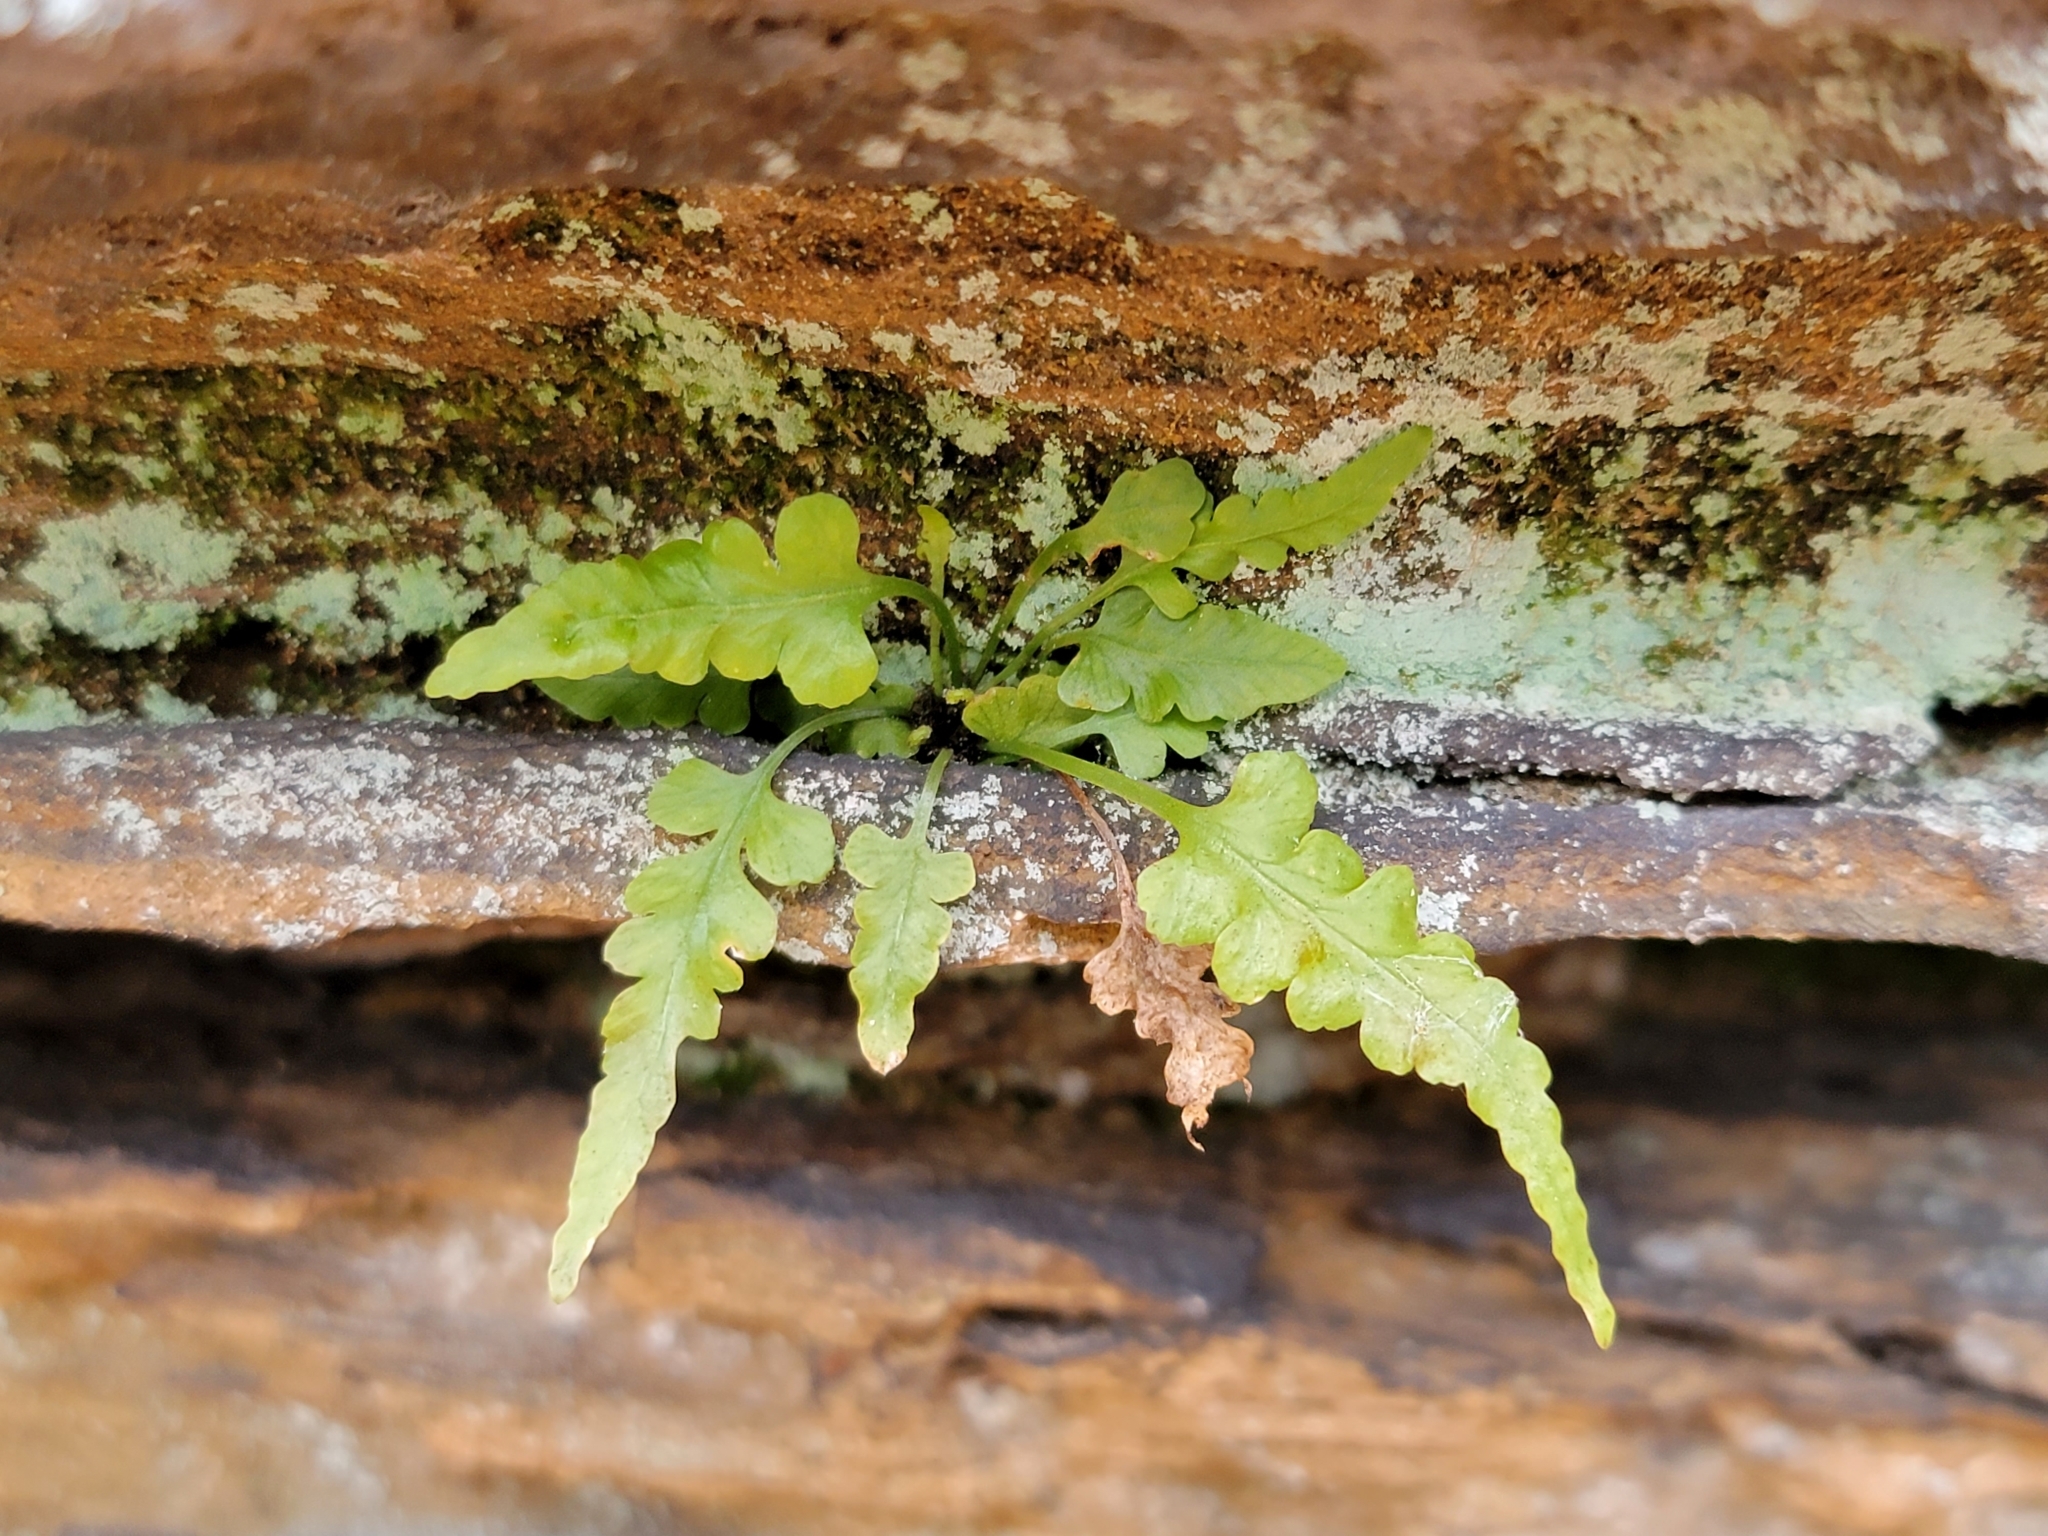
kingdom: Plantae
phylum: Tracheophyta
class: Polypodiopsida
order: Polypodiales
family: Aspleniaceae
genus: Asplenium
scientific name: Asplenium pinnatifidum
